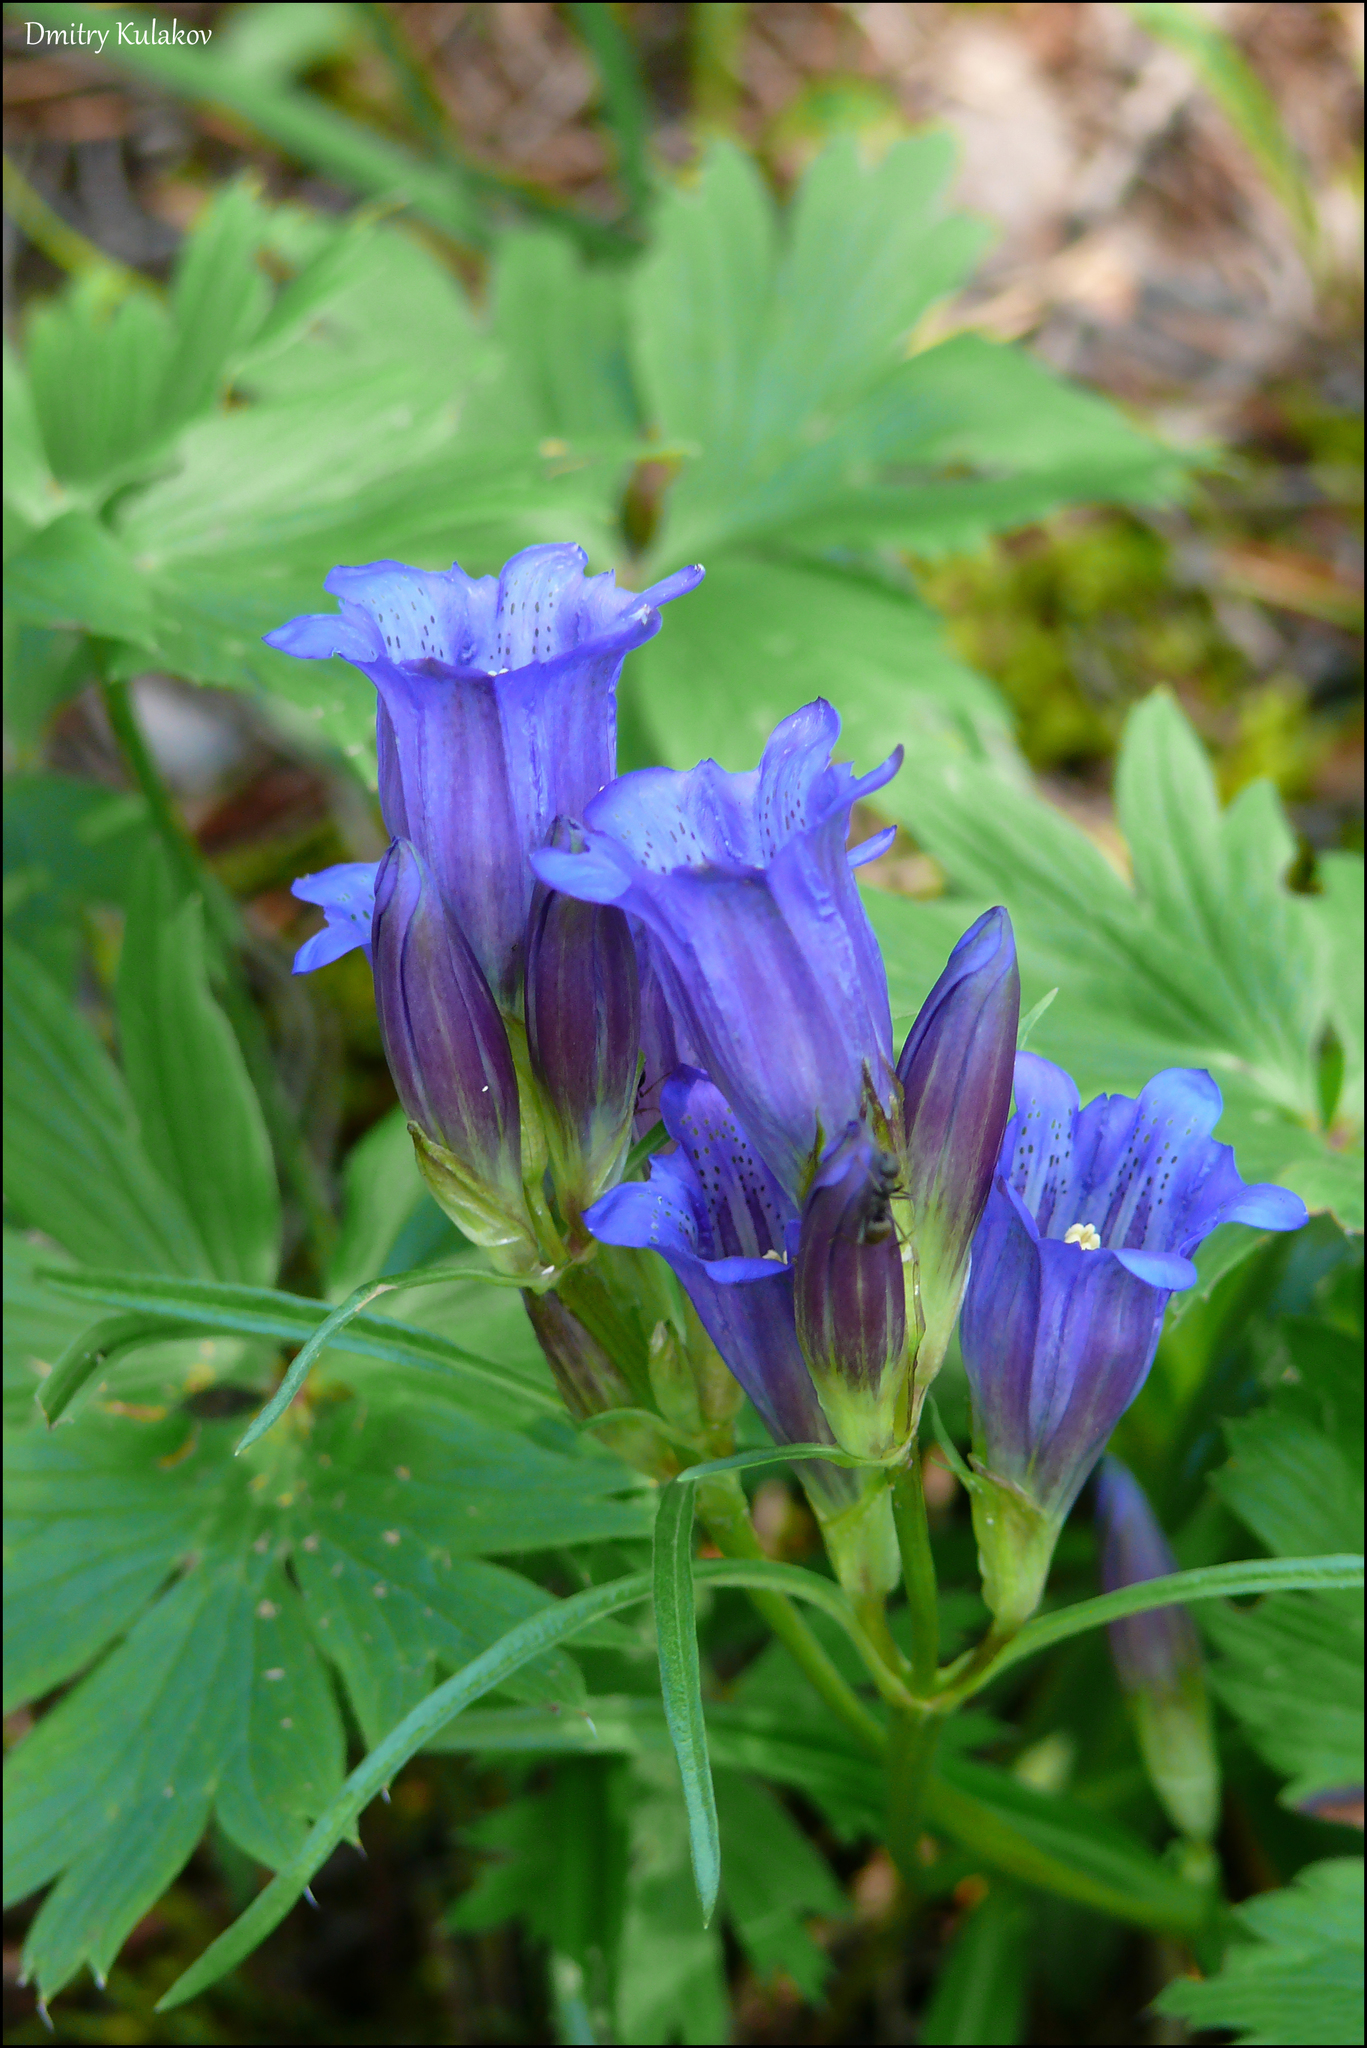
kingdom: Plantae
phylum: Tracheophyta
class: Magnoliopsida
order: Gentianales
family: Gentianaceae
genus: Gentiana
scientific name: Gentiana triflora
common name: Three-flower gentian
